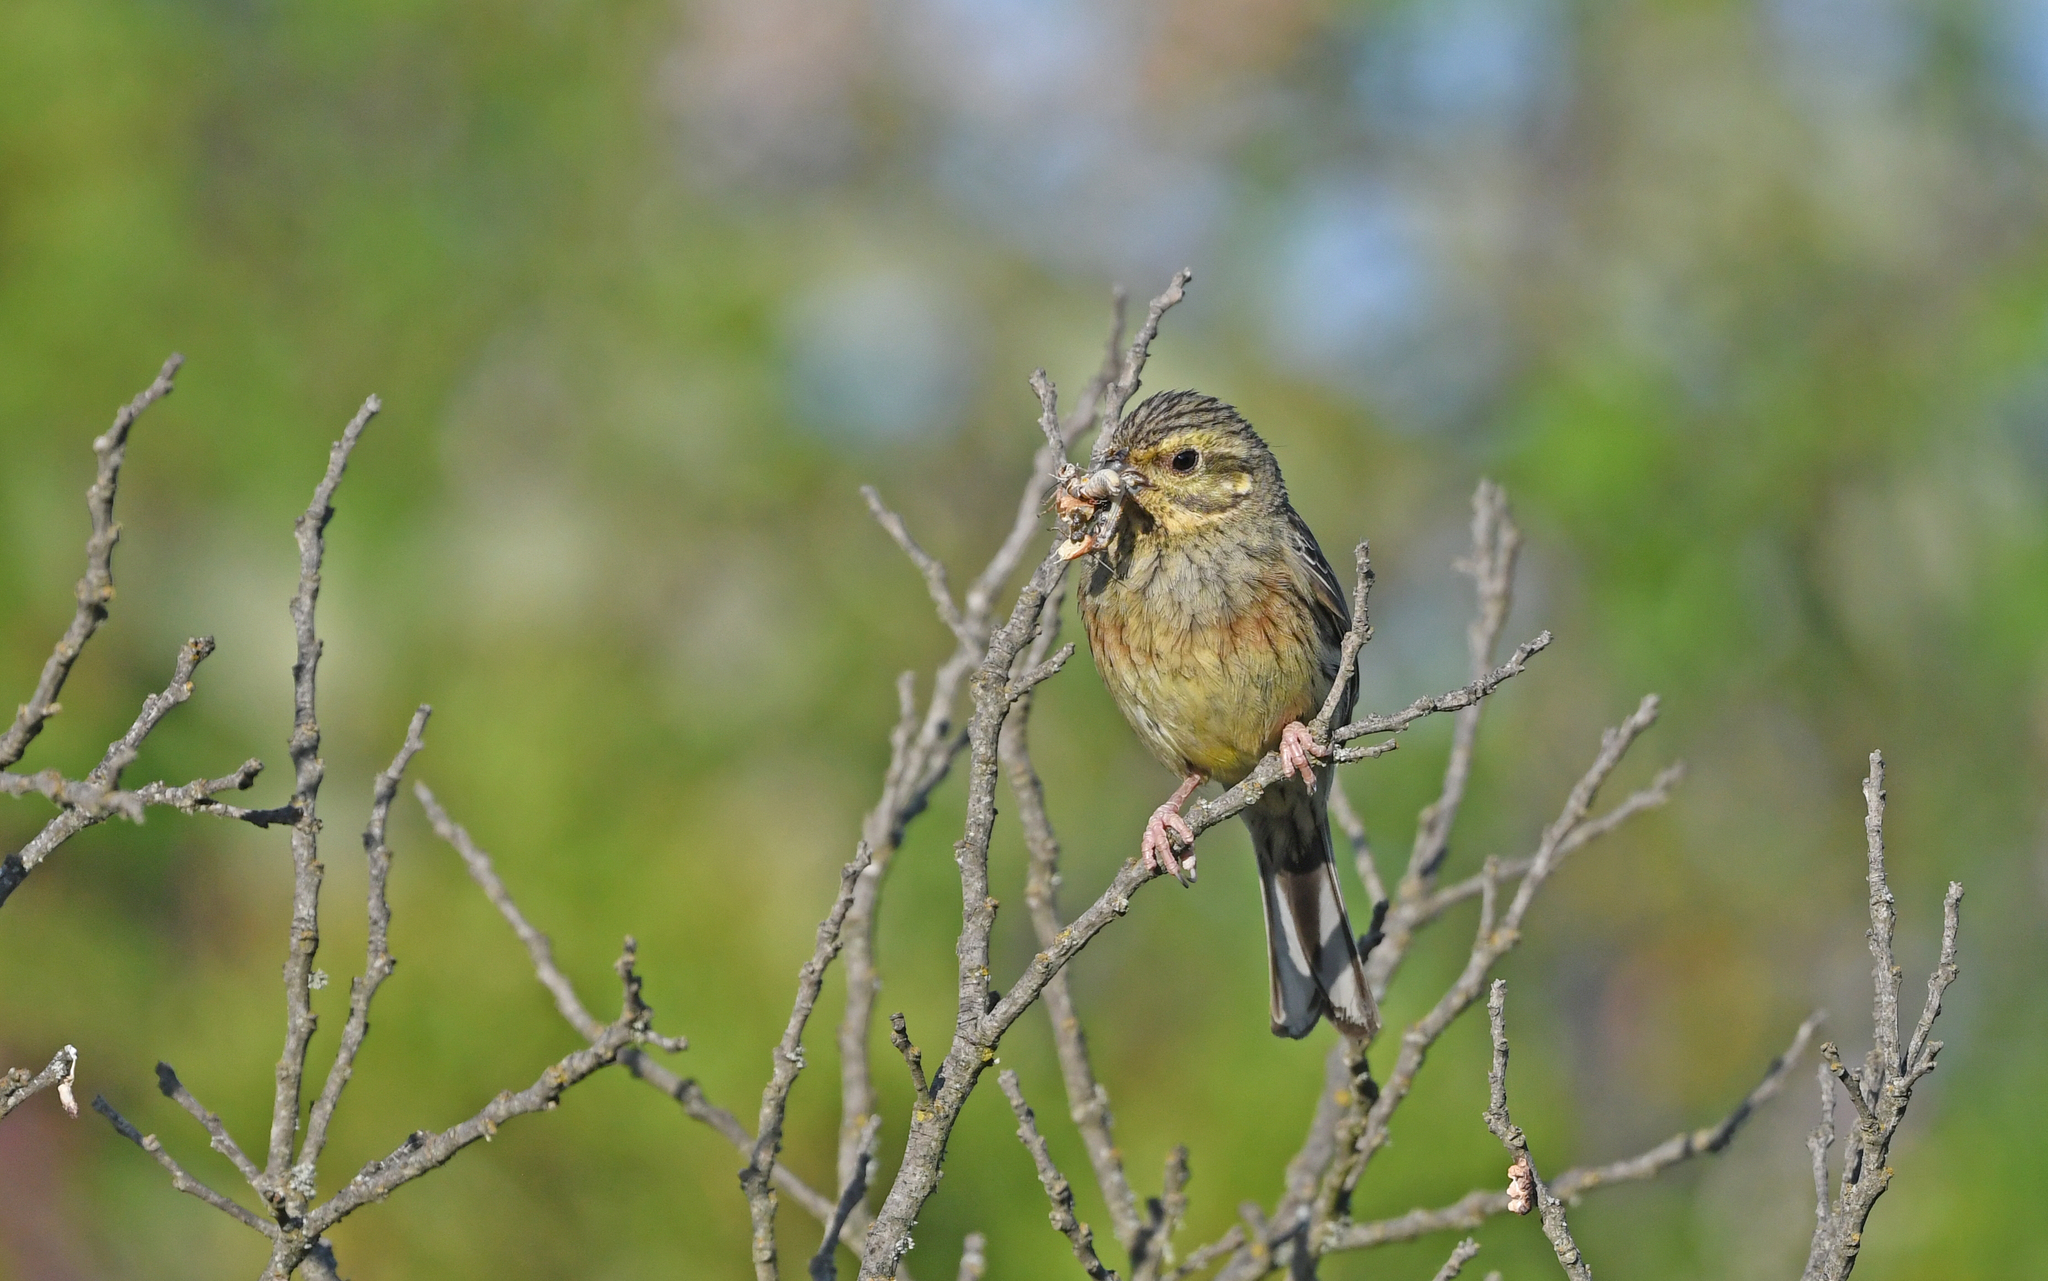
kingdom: Animalia
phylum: Chordata
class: Aves
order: Passeriformes
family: Emberizidae
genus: Emberiza
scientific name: Emberiza cirlus
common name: Cirl bunting
